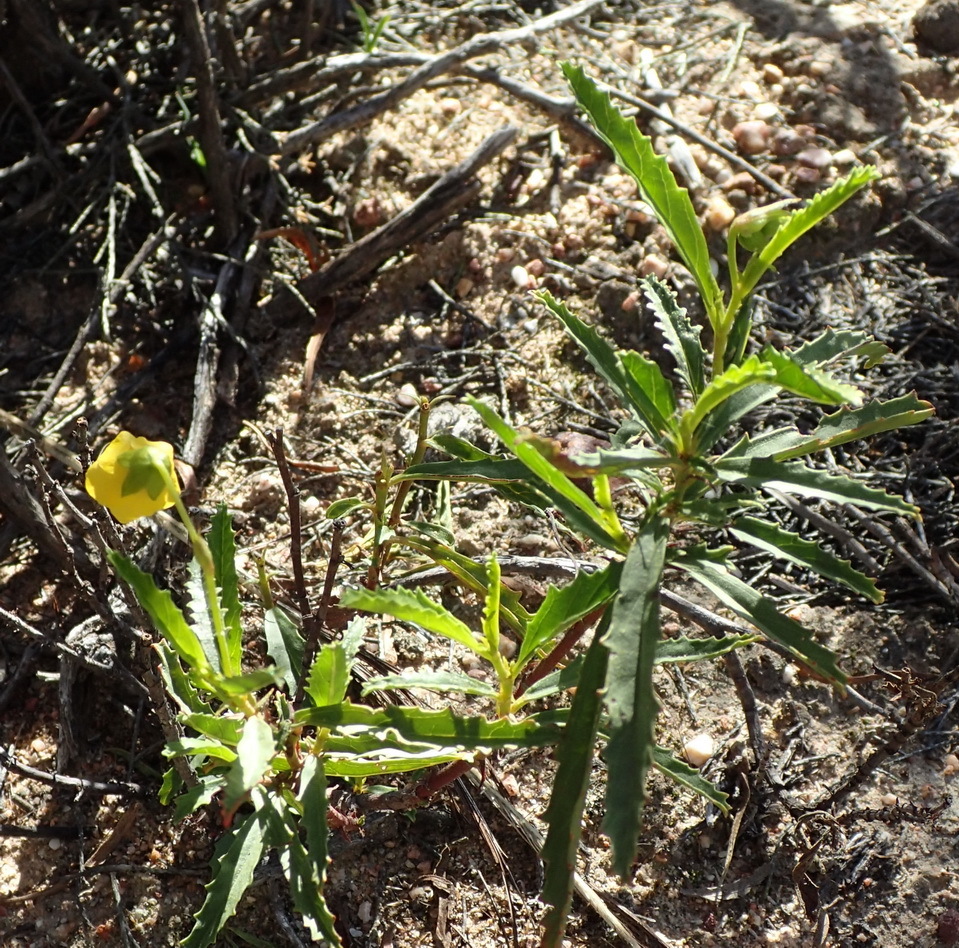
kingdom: Plantae
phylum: Tracheophyta
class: Magnoliopsida
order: Malvales
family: Malvaceae
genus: Hermannia
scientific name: Hermannia saccifera
